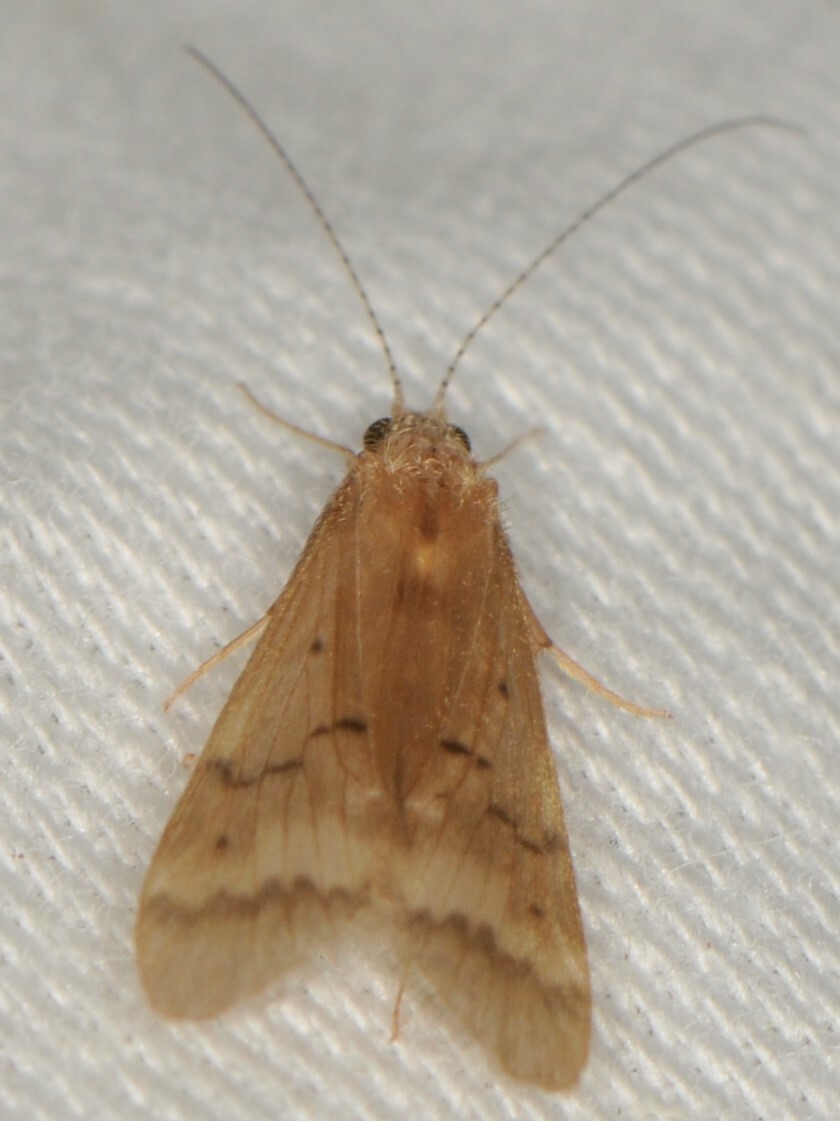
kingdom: Animalia
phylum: Arthropoda
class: Insecta
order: Trichoptera
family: Hydropsychidae
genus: Smicridea
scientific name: Smicridea signata
